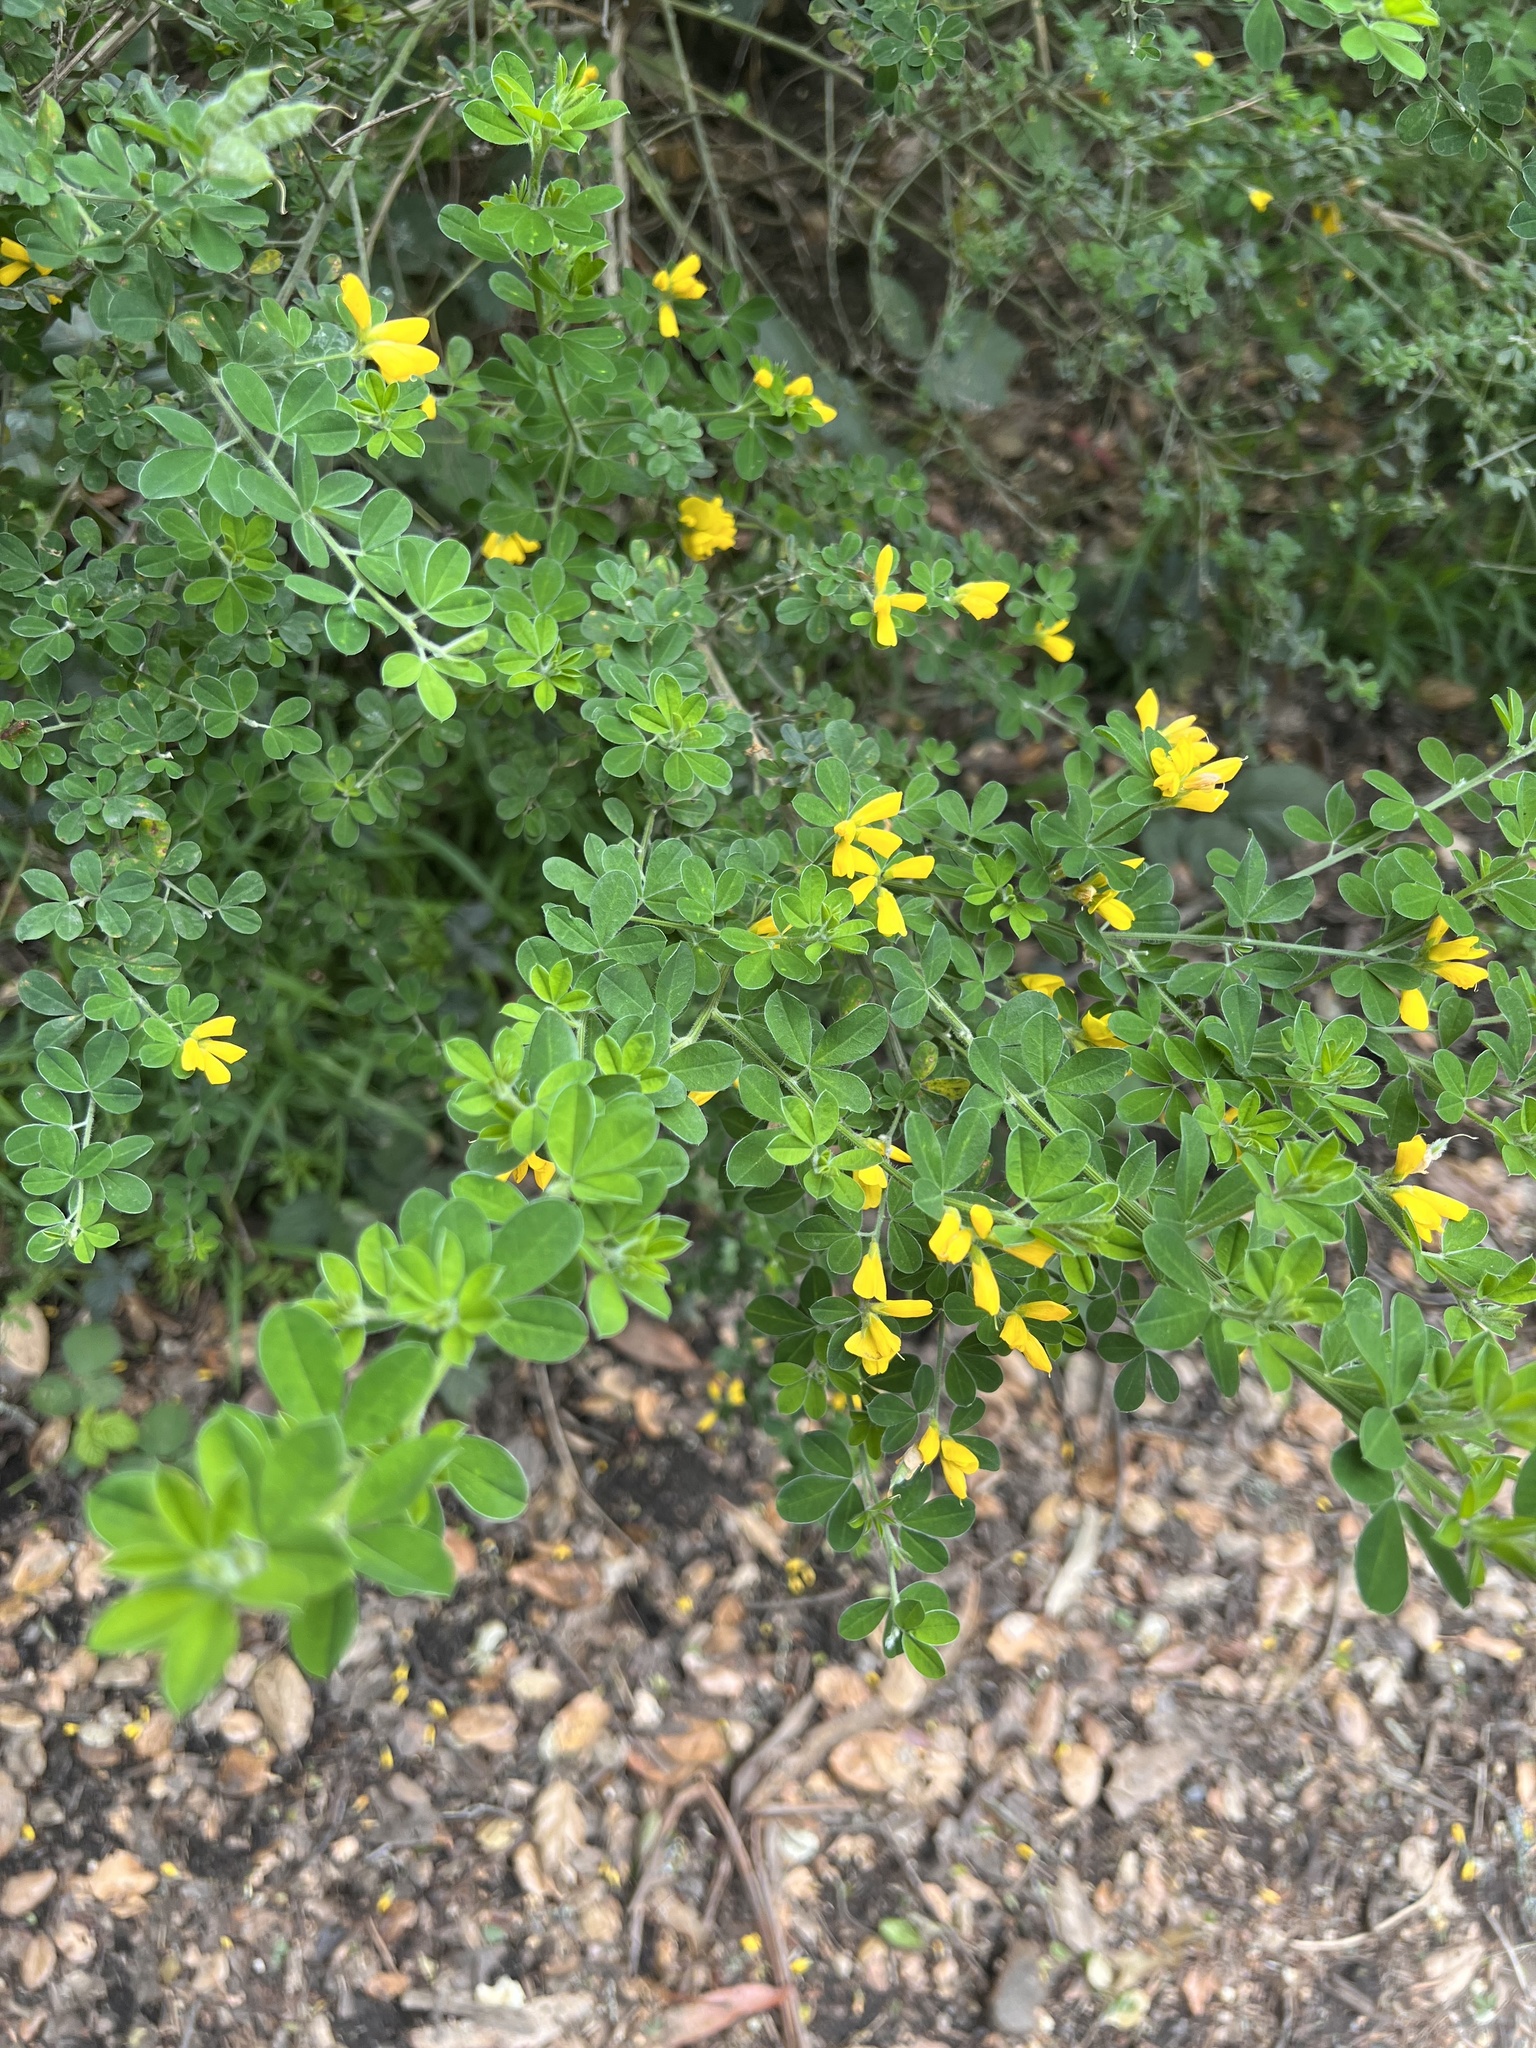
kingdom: Plantae
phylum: Tracheophyta
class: Magnoliopsida
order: Fabales
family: Fabaceae
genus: Genista
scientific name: Genista monspessulana
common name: Montpellier broom
